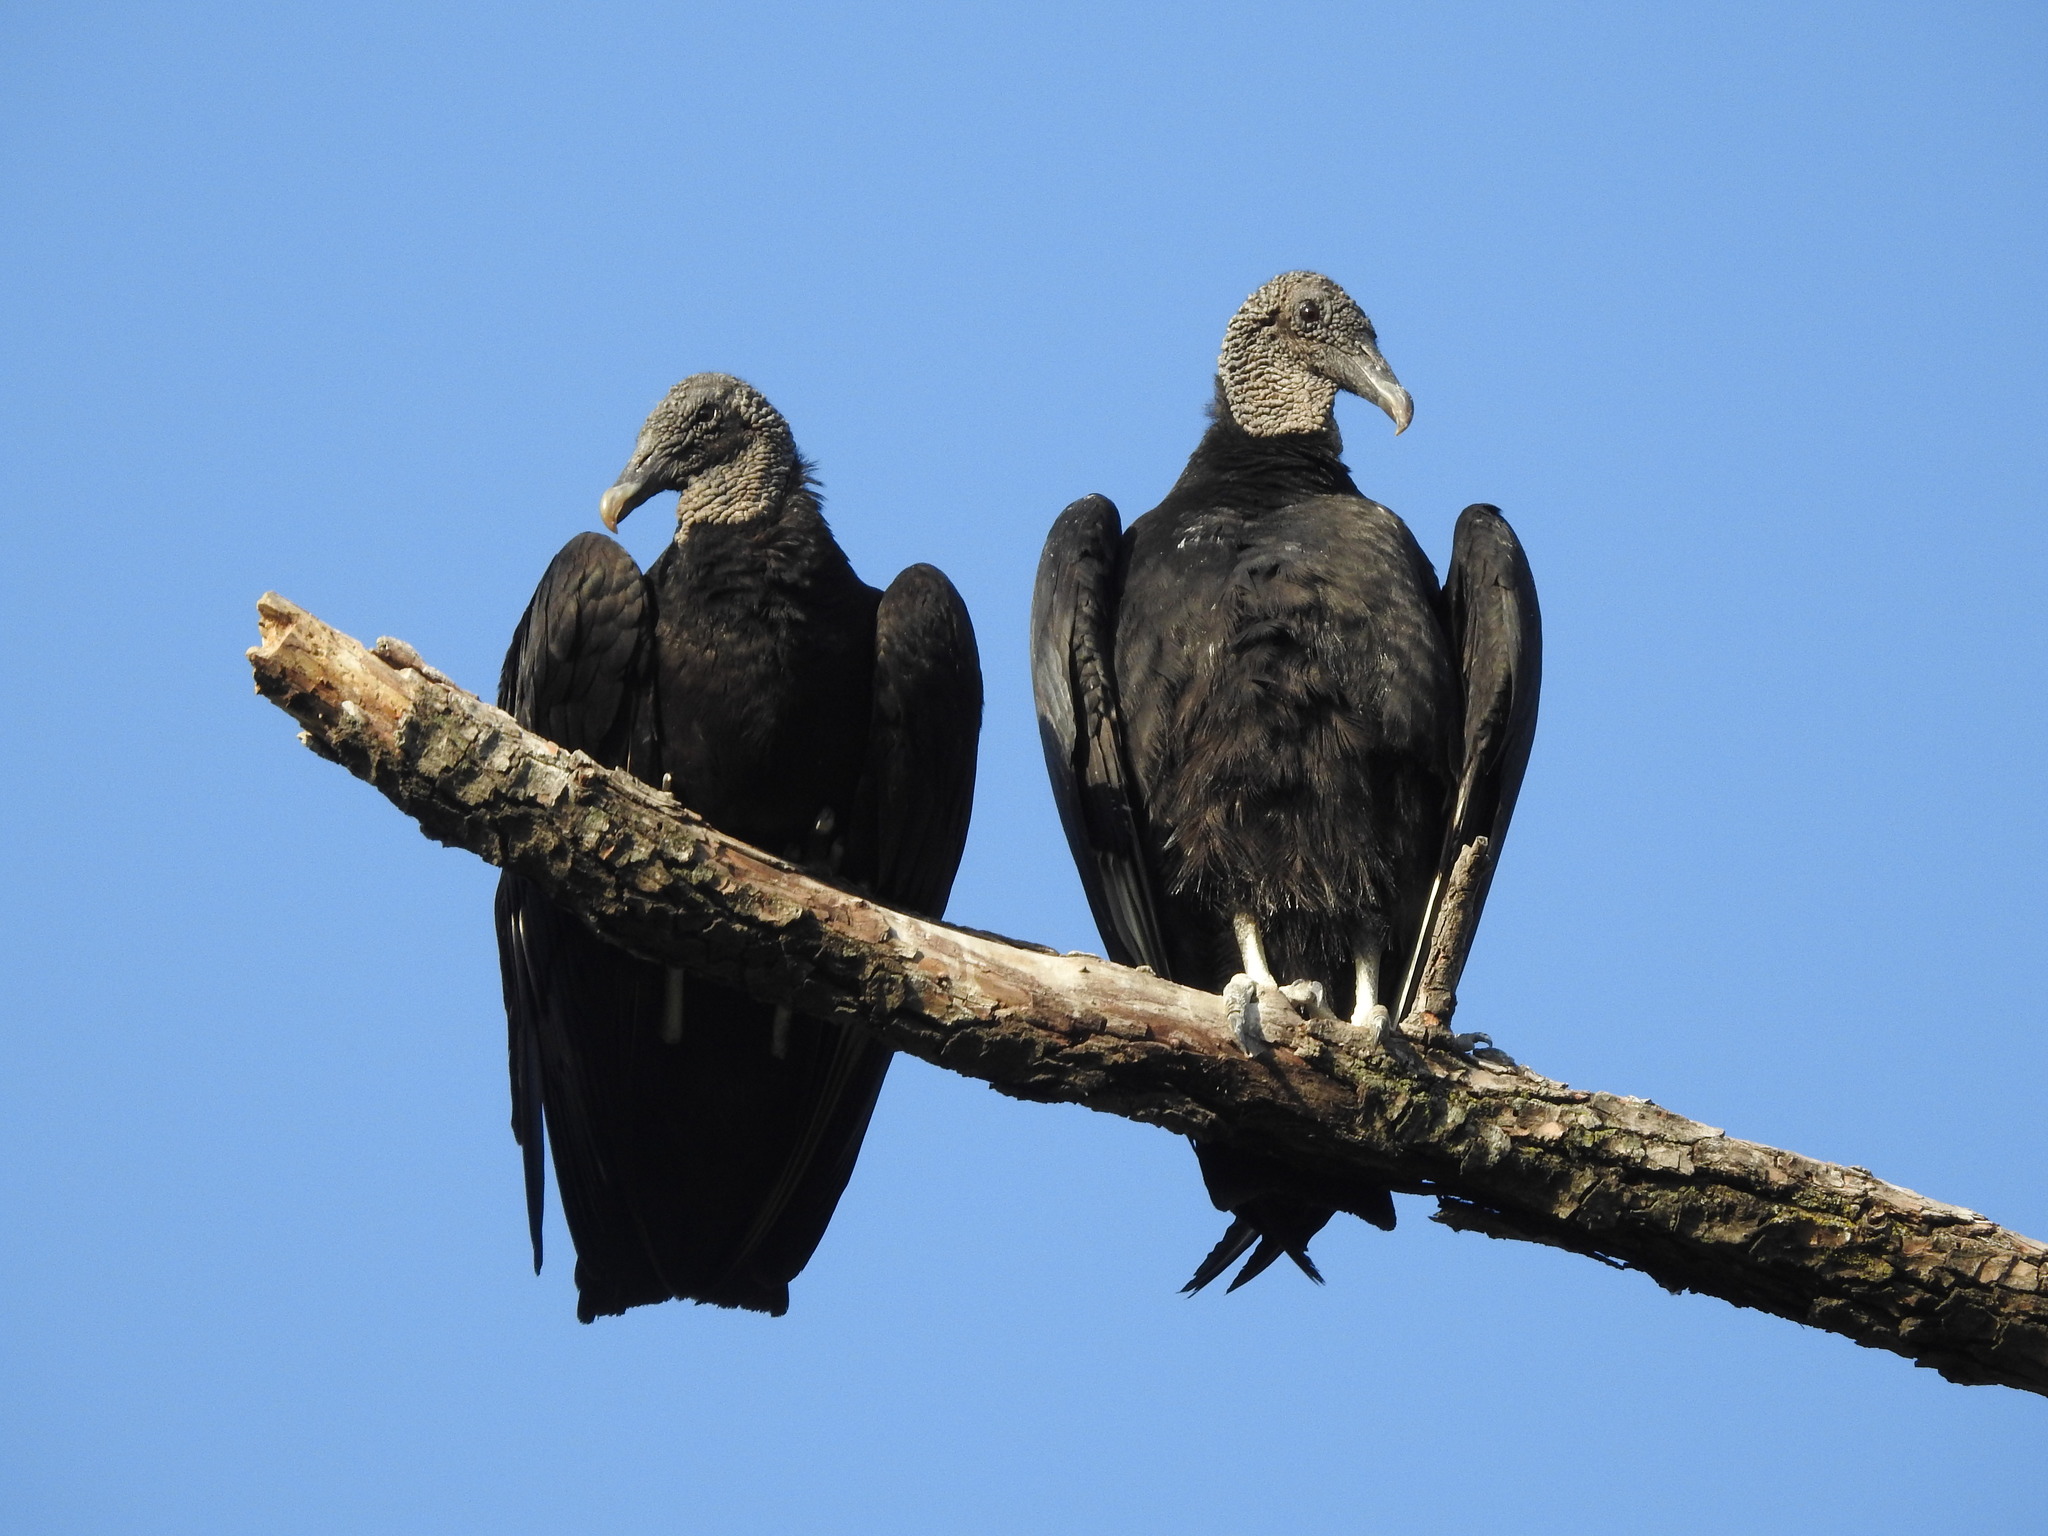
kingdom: Animalia
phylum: Chordata
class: Aves
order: Accipitriformes
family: Cathartidae
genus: Coragyps
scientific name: Coragyps atratus
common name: Black vulture
